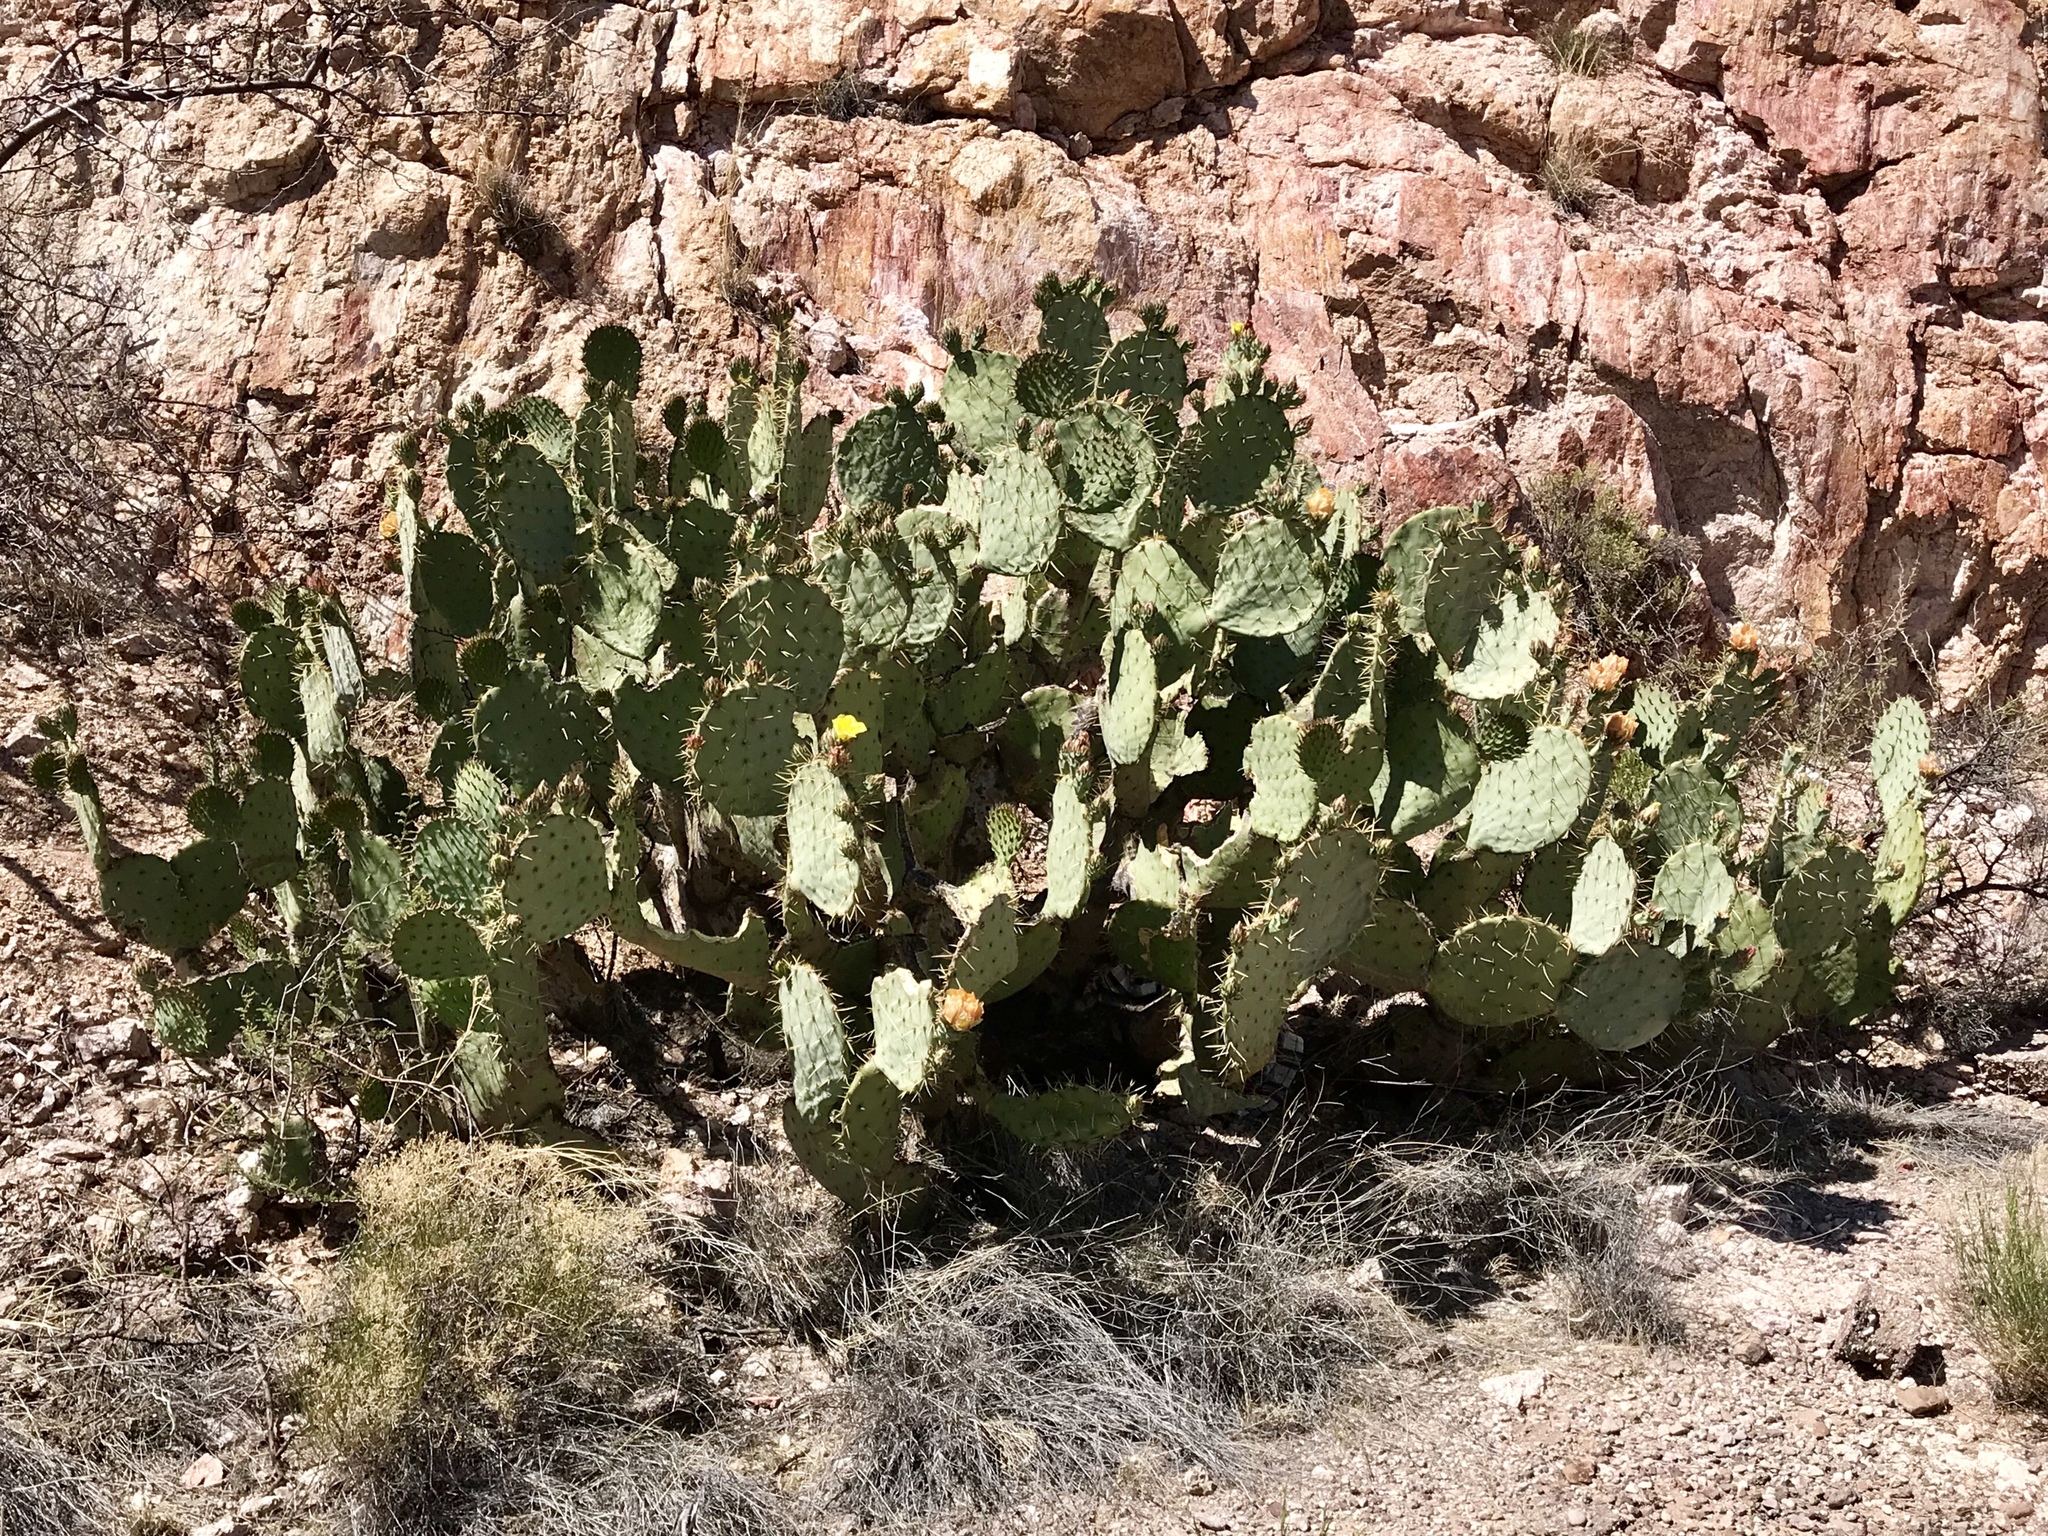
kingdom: Plantae
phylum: Tracheophyta
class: Magnoliopsida
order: Caryophyllales
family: Cactaceae
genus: Opuntia
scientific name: Opuntia engelmannii
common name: Cactus-apple
